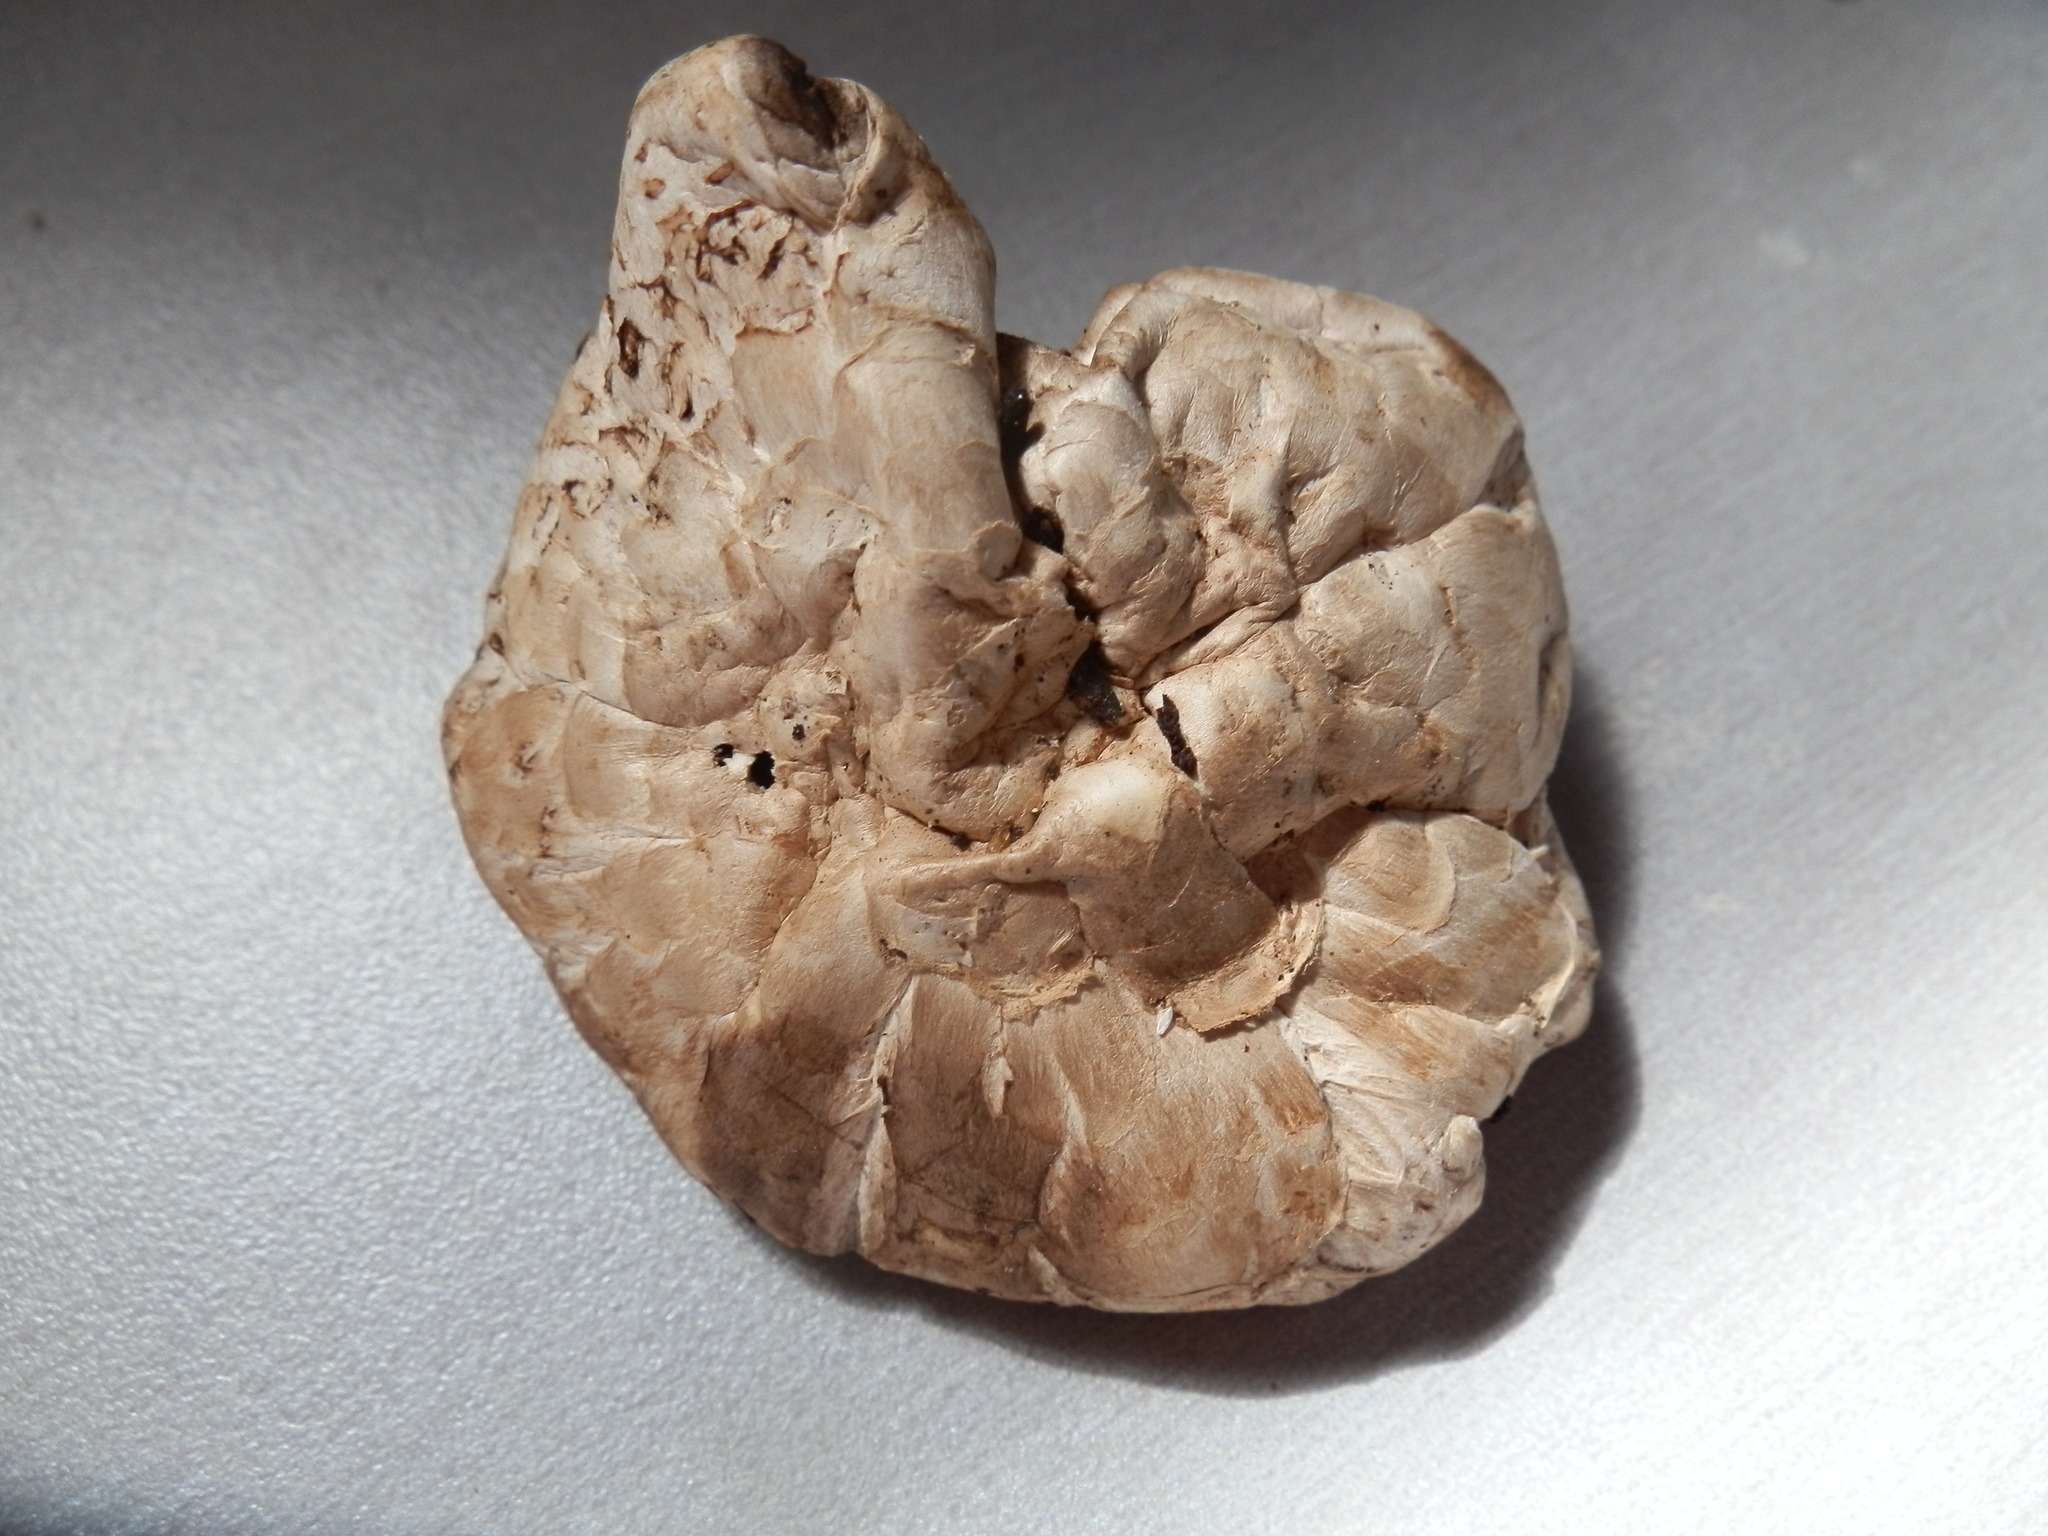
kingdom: Fungi
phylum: Basidiomycota
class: Agaricomycetes
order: Agaricales
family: Agaricaceae
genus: Agaricus
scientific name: Agaricus subfloccosus
